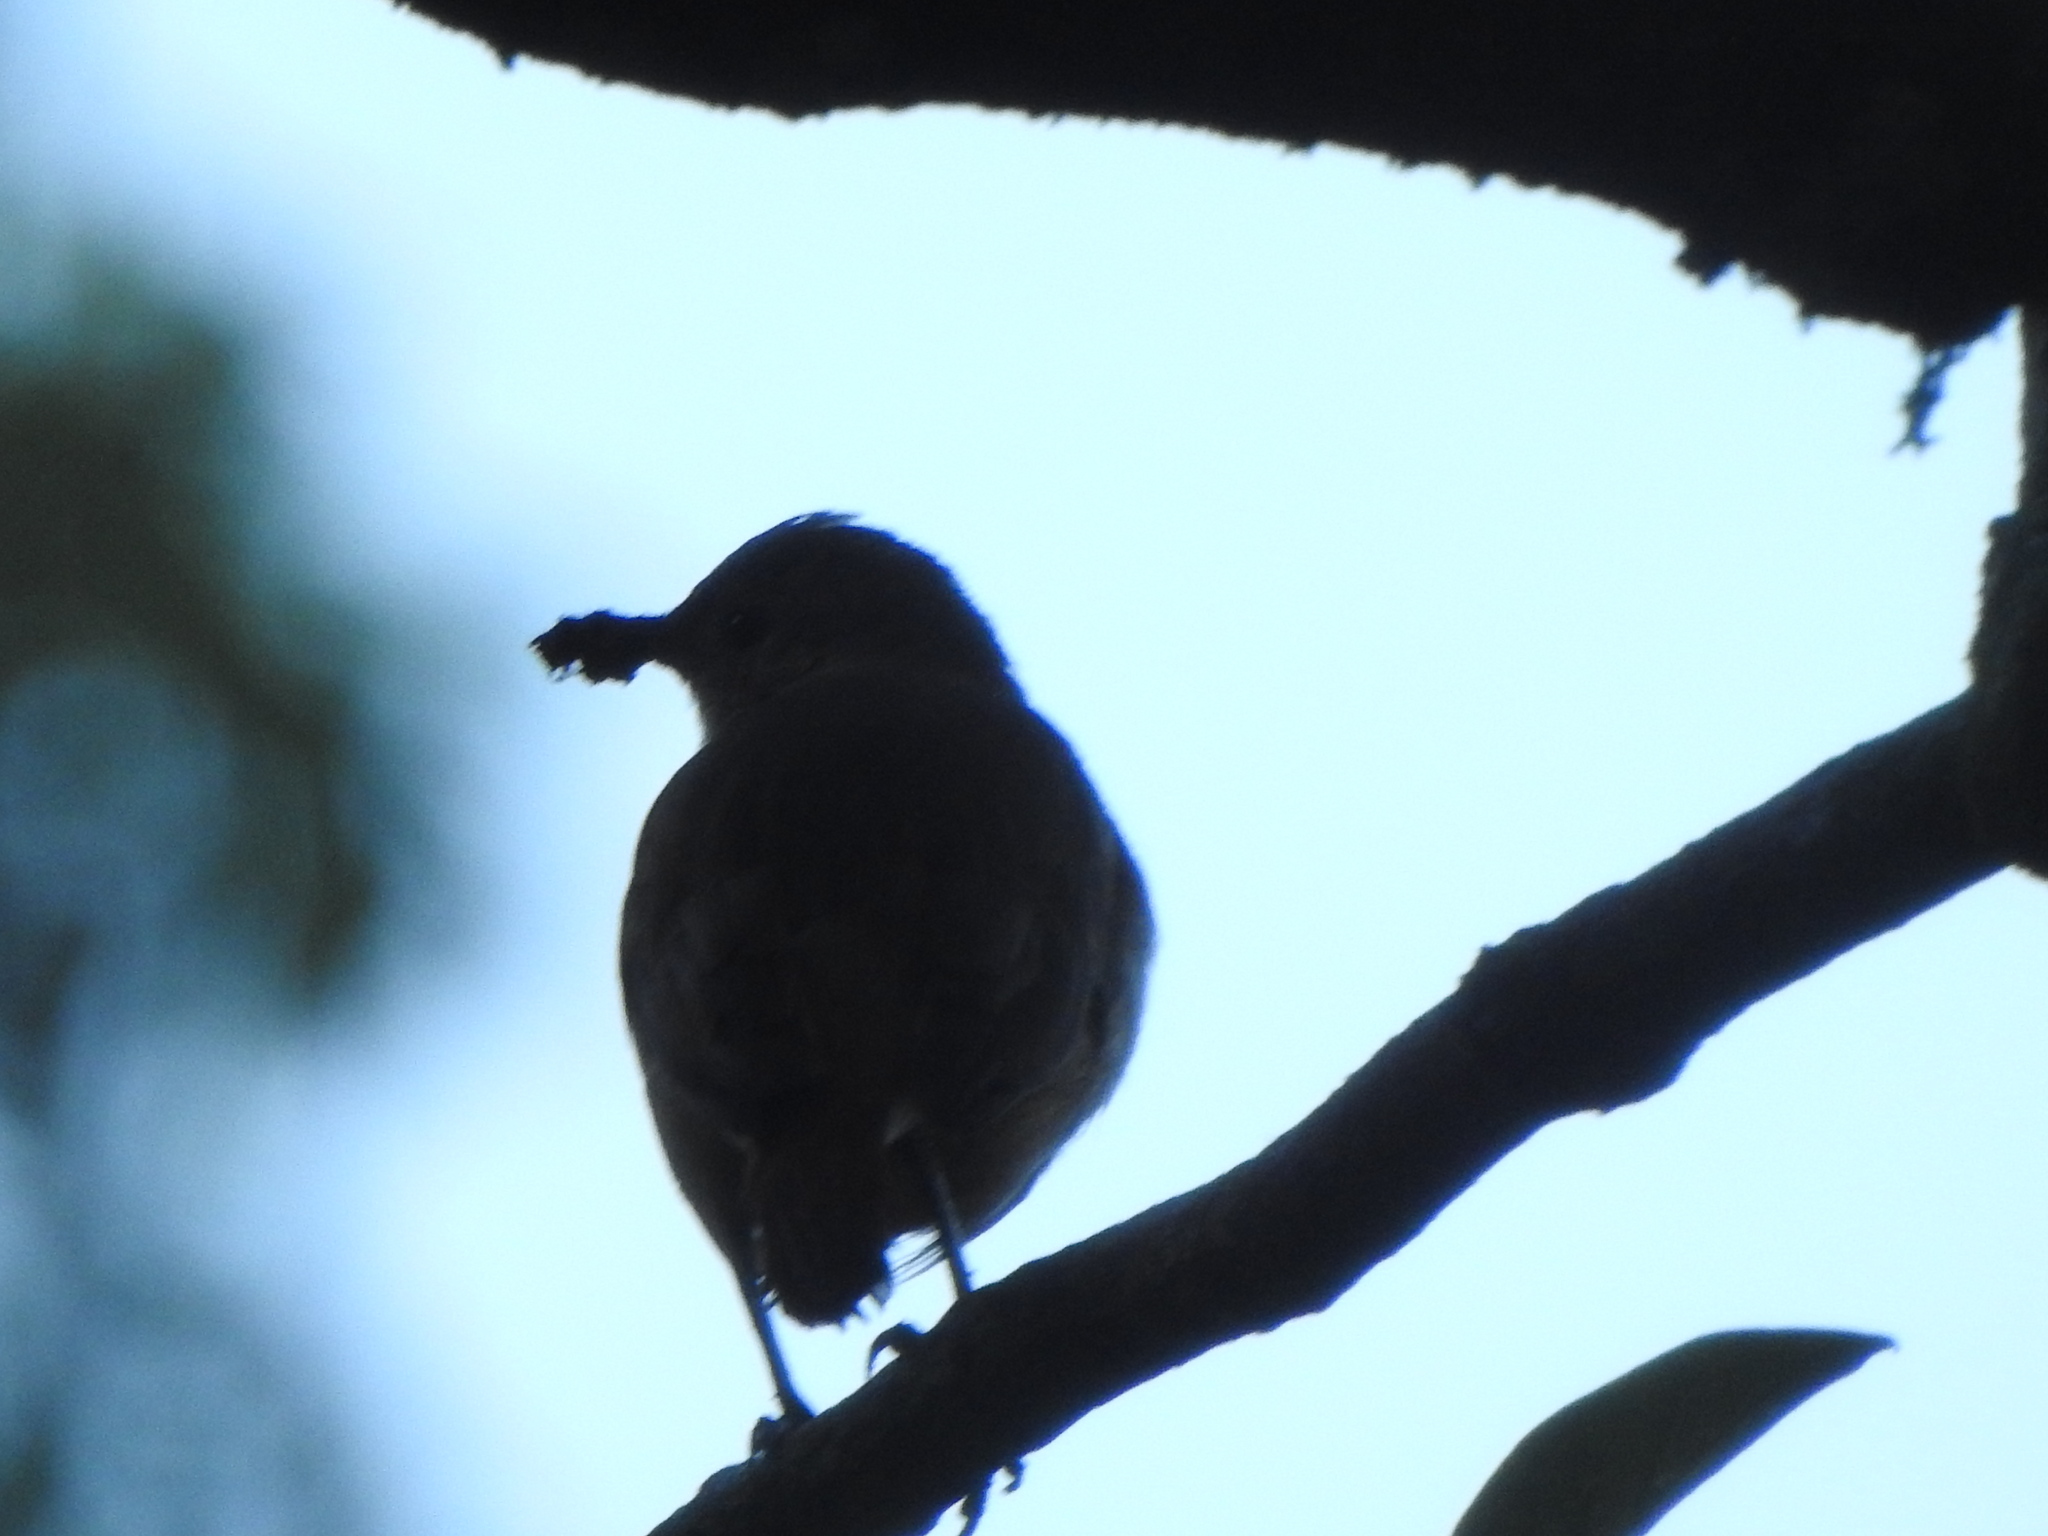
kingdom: Animalia
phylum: Chordata
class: Aves
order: Passeriformes
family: Furnariidae
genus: Furnarius
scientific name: Furnarius rufus
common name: Rufous hornero
